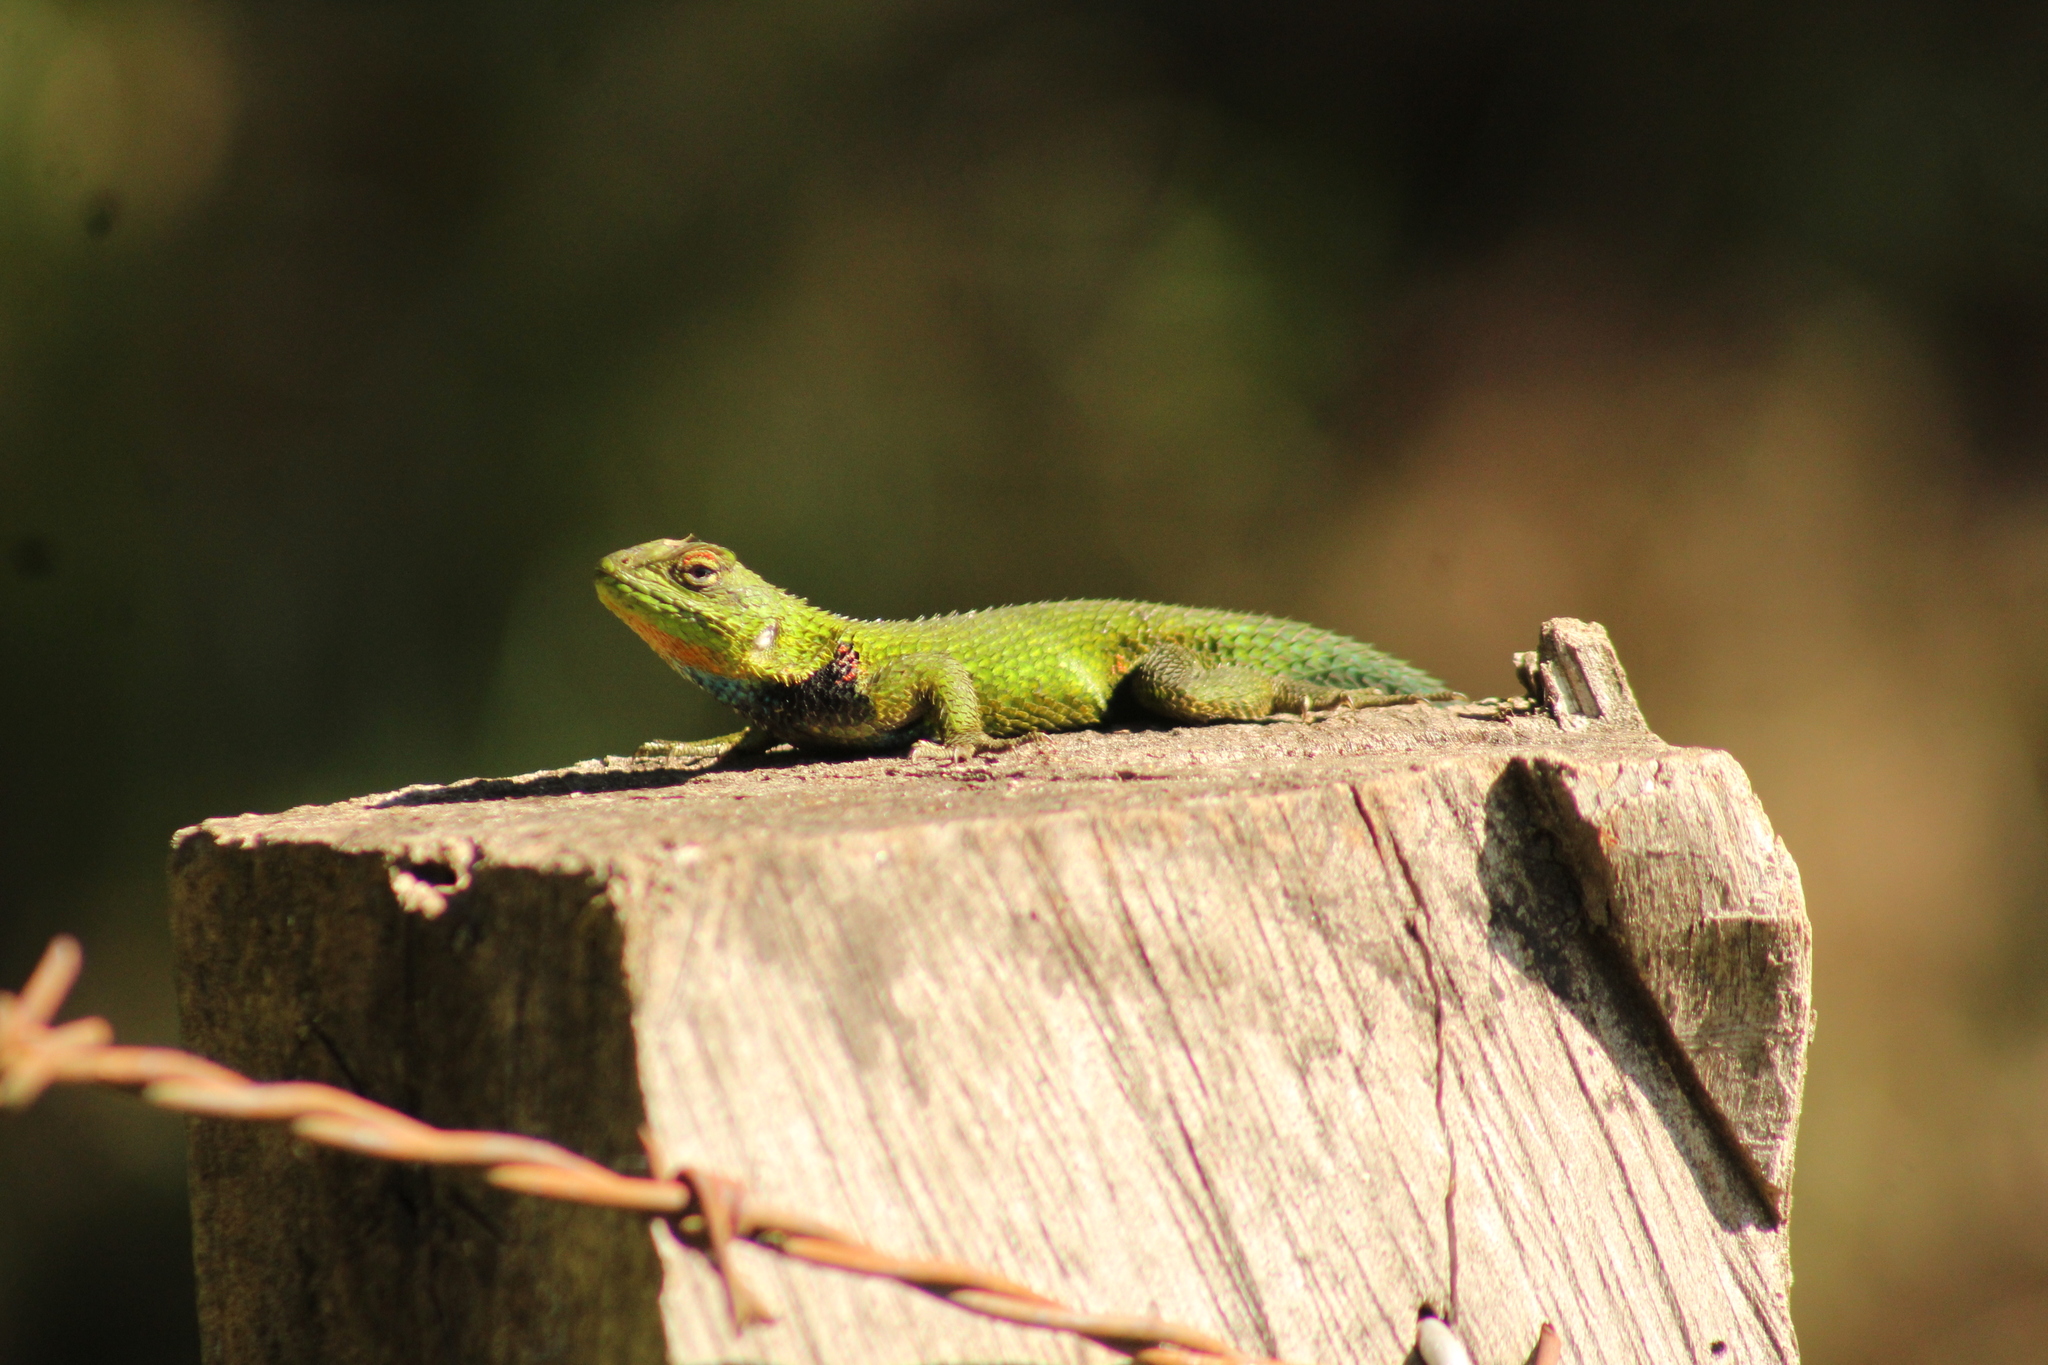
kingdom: Animalia
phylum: Chordata
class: Squamata
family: Phrynosomatidae
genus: Sceloporus
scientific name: Sceloporus formosus
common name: Mexican emerald spiny lizard
